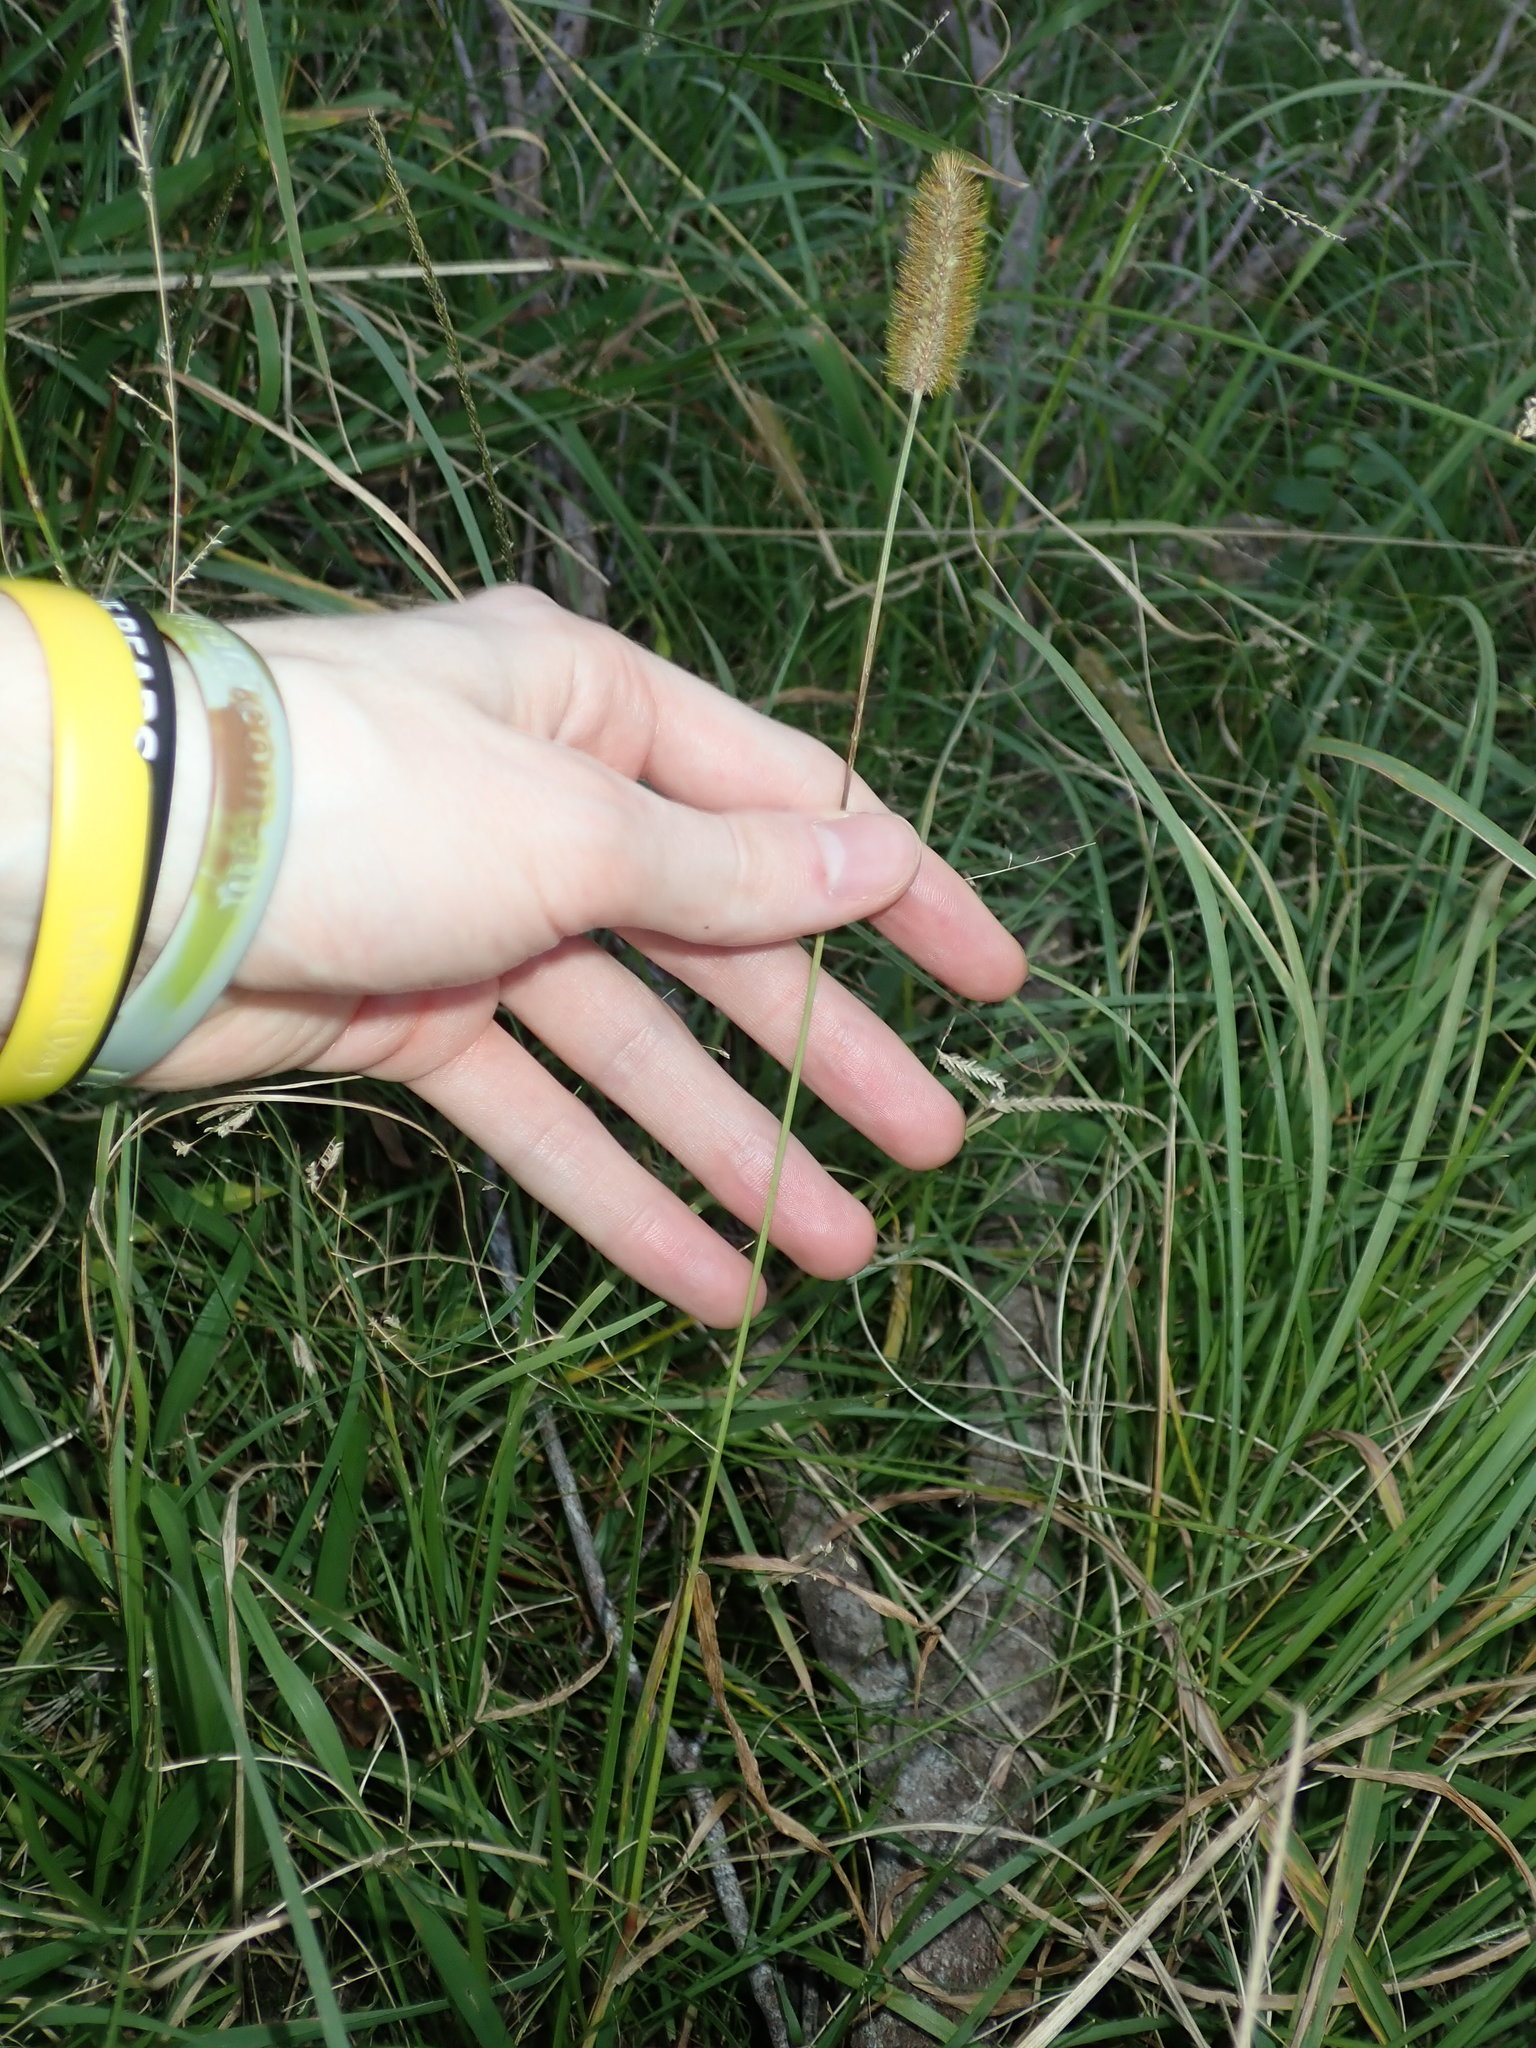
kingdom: Plantae
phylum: Tracheophyta
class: Liliopsida
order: Poales
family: Poaceae
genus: Setaria
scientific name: Setaria pumila
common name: Yellow bristle-grass
